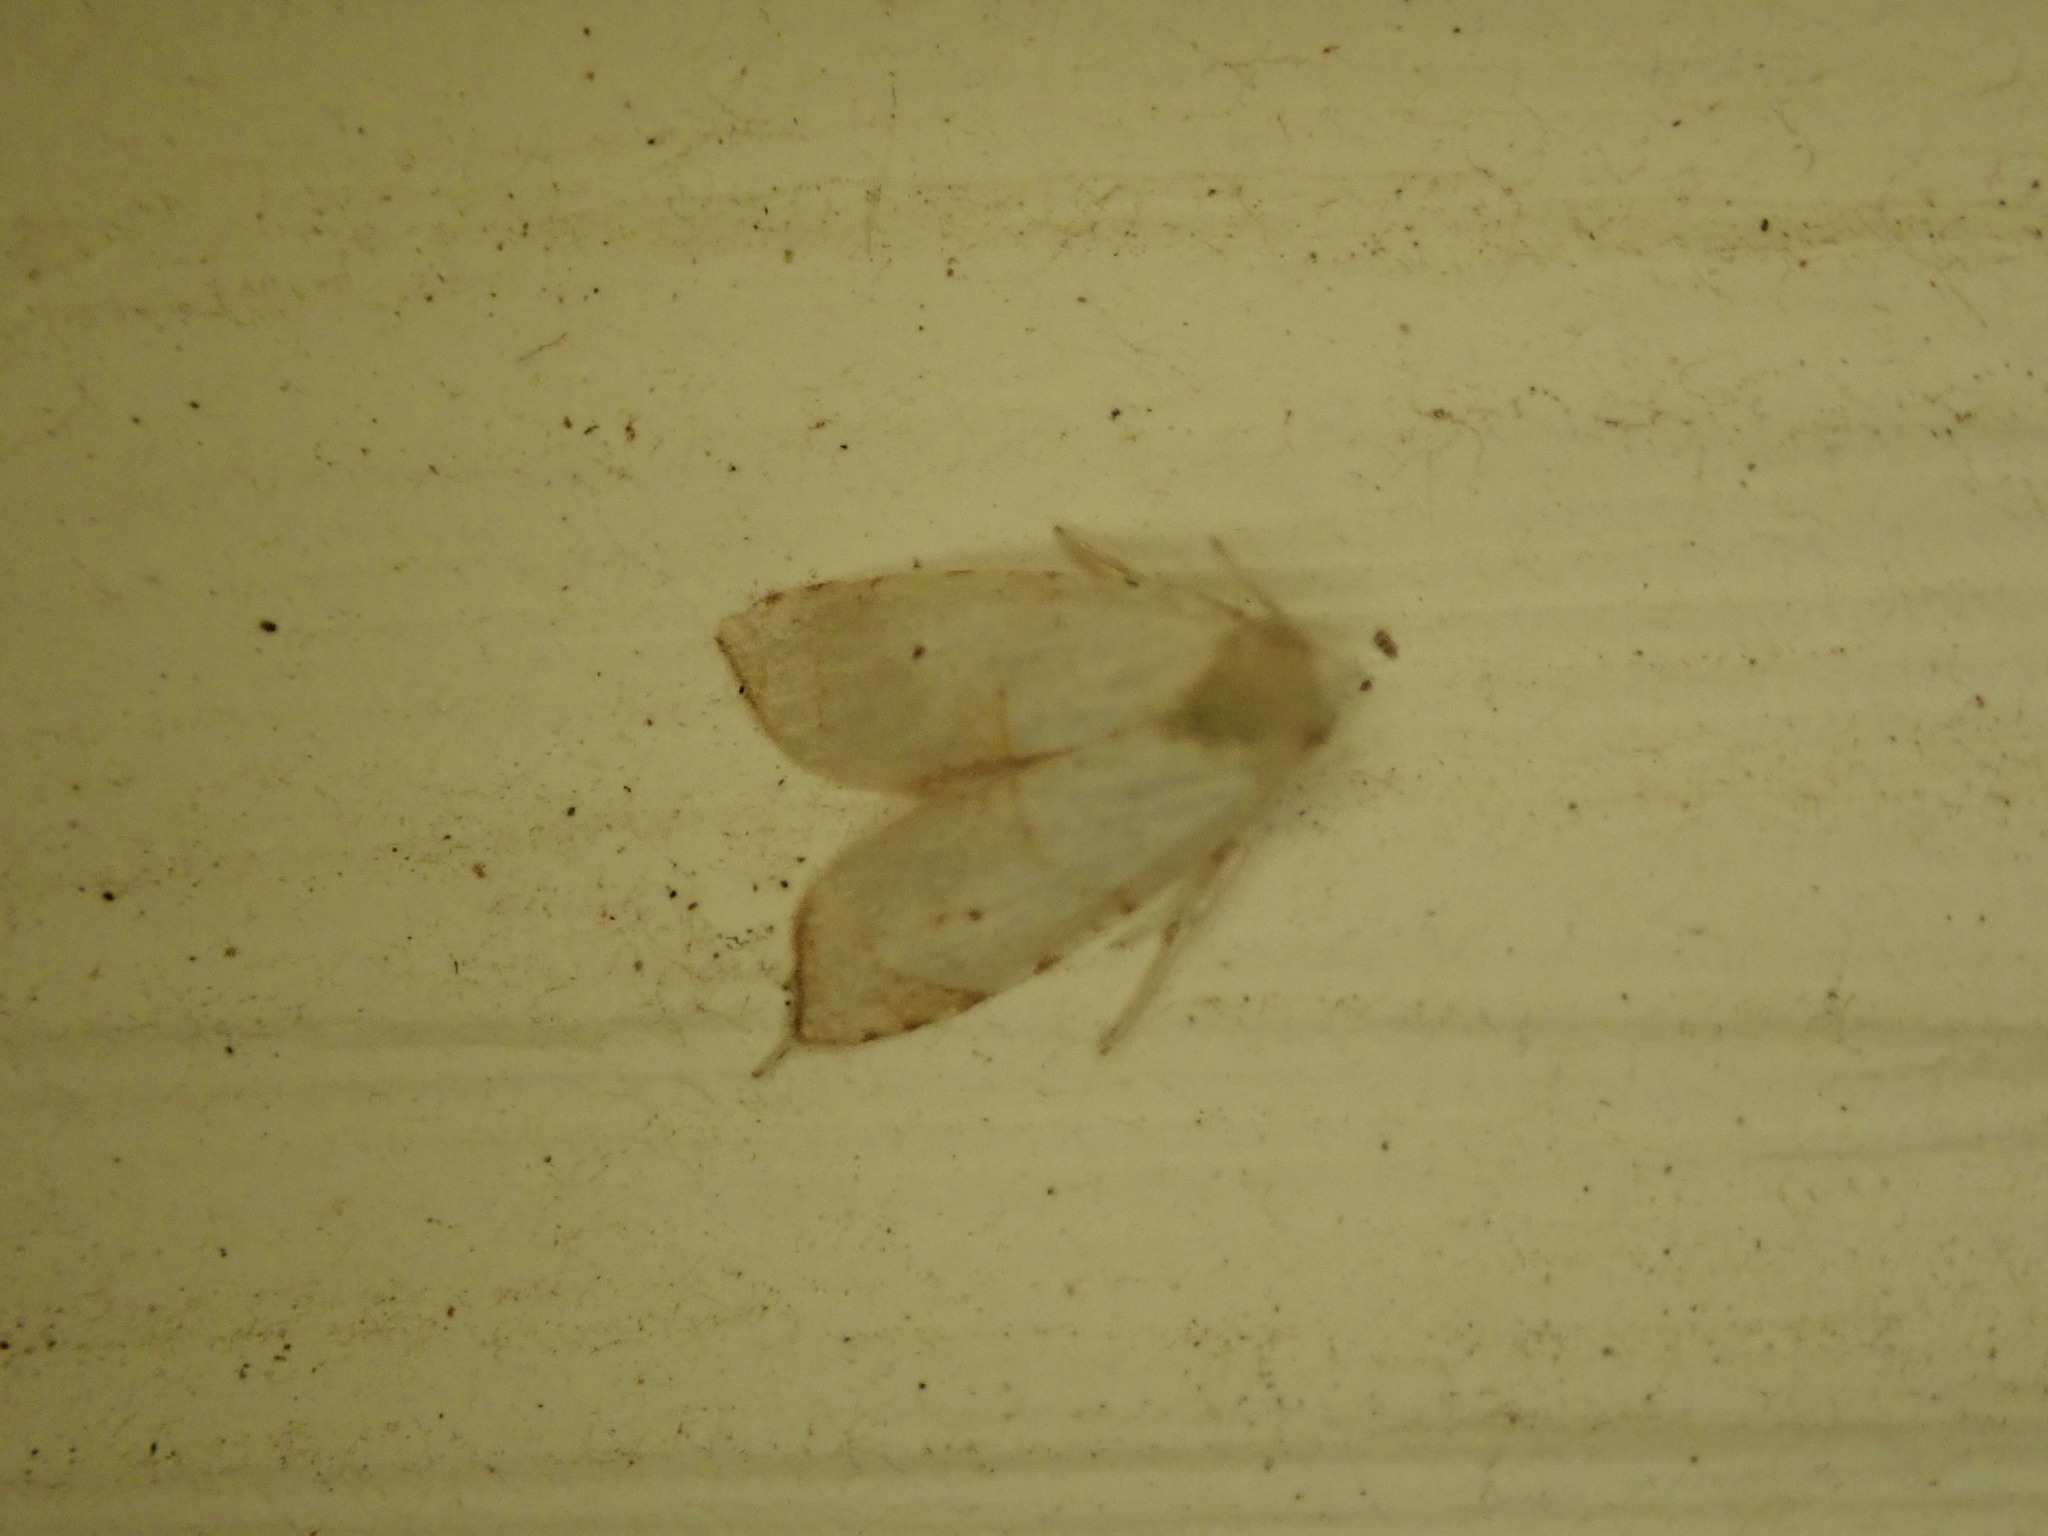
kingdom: Animalia
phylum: Arthropoda
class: Insecta
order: Lepidoptera
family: Tortricidae
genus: Coelostathma
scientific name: Coelostathma discopunctana
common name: Batman moth
